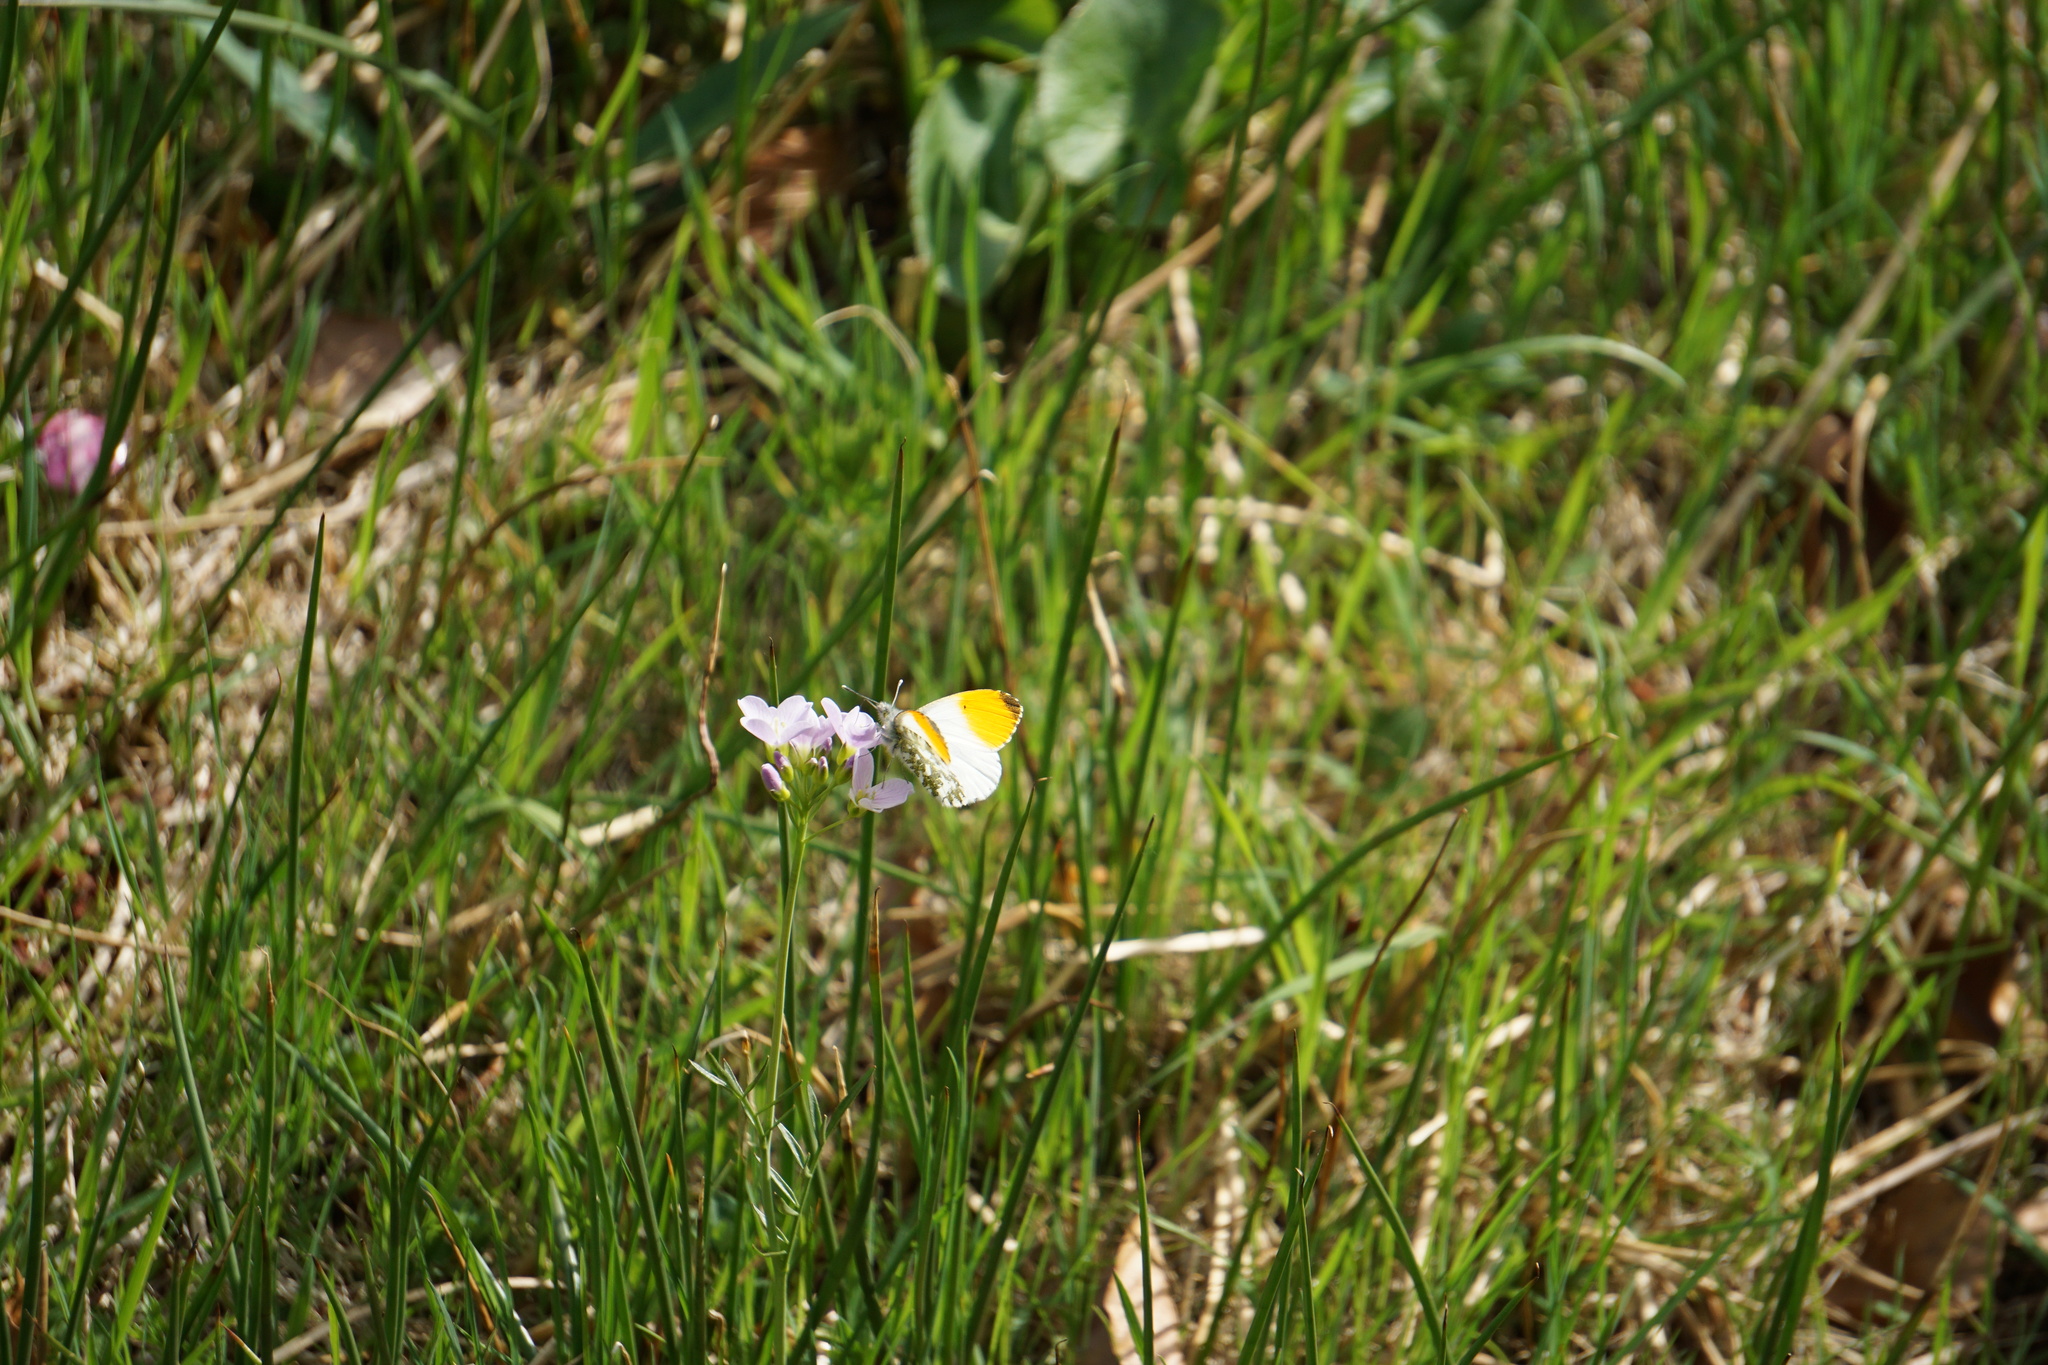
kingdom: Animalia
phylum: Arthropoda
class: Insecta
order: Lepidoptera
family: Pieridae
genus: Anthocharis
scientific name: Anthocharis cardamines
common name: Orange-tip
